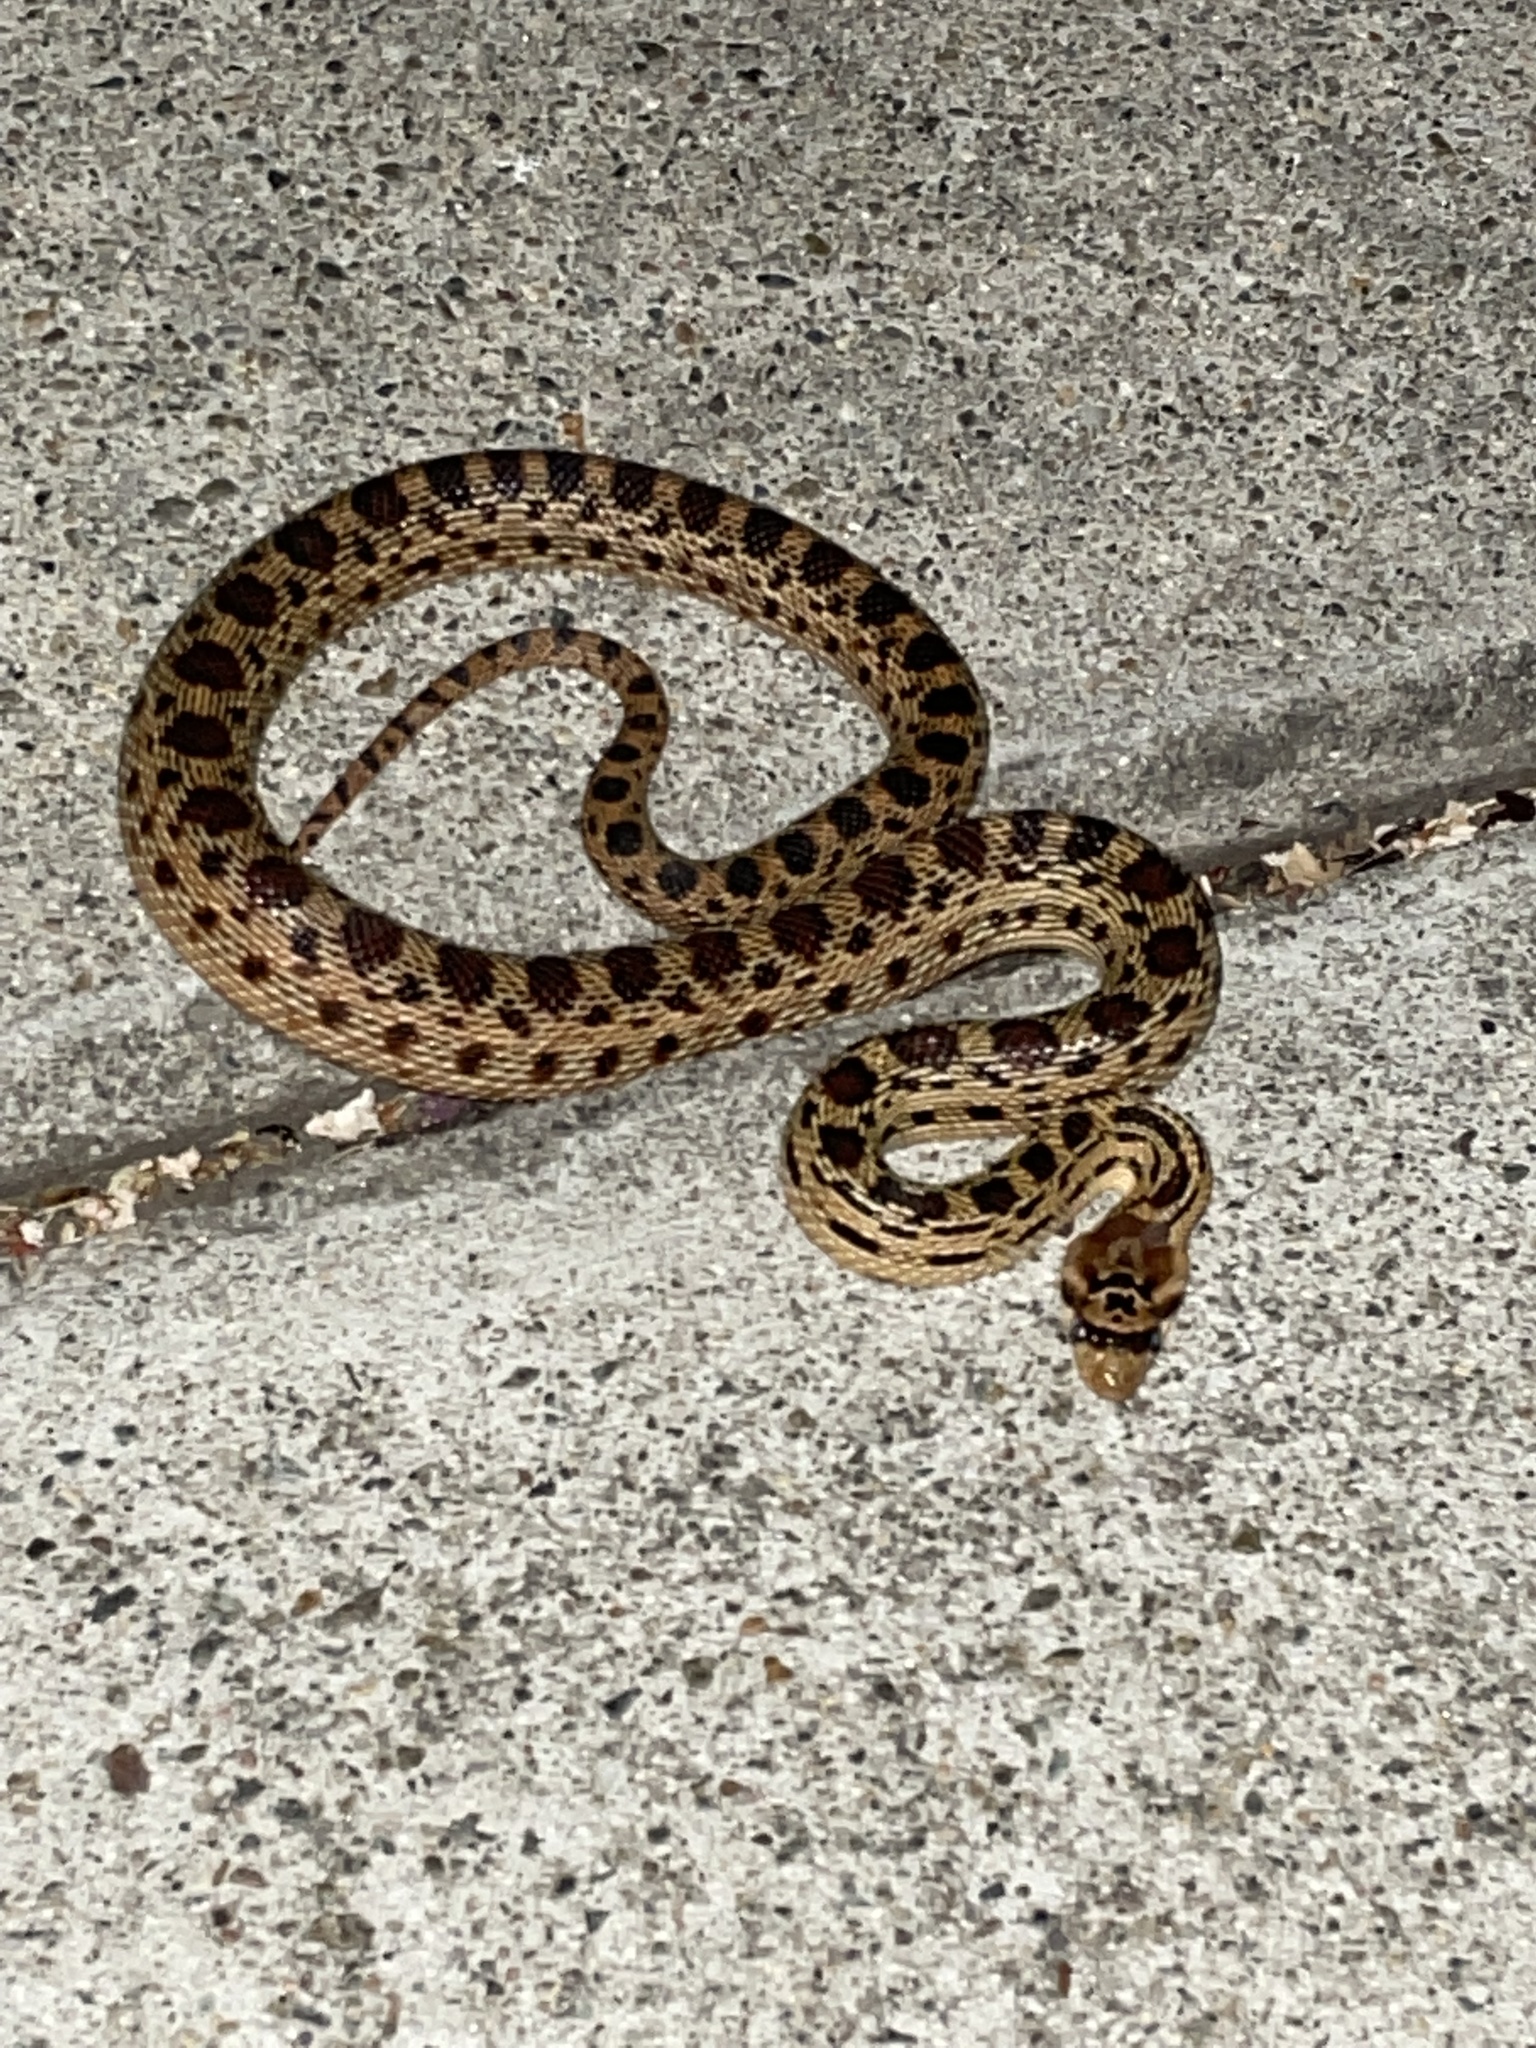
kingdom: Animalia
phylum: Chordata
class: Squamata
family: Colubridae
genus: Pituophis
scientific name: Pituophis catenifer
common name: Gopher snake
